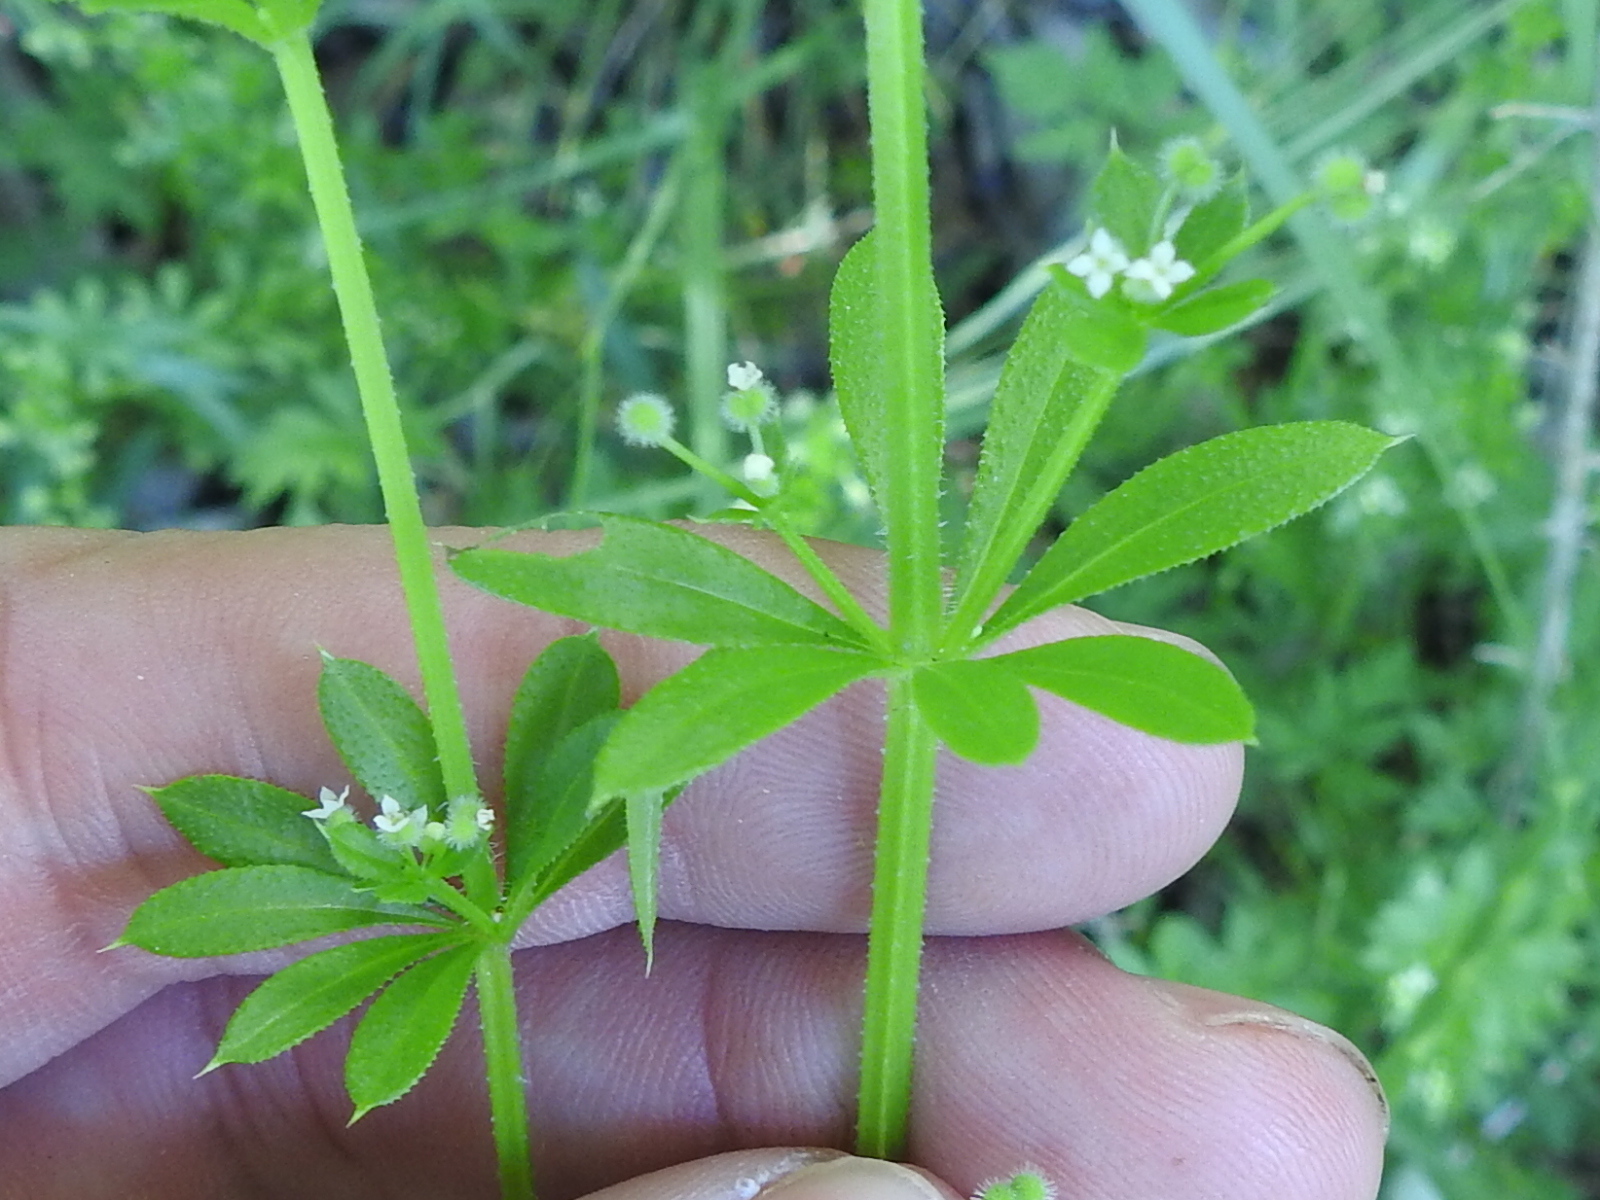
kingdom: Plantae
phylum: Tracheophyta
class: Magnoliopsida
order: Gentianales
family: Rubiaceae
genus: Galium
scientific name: Galium aparine
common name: Cleavers
